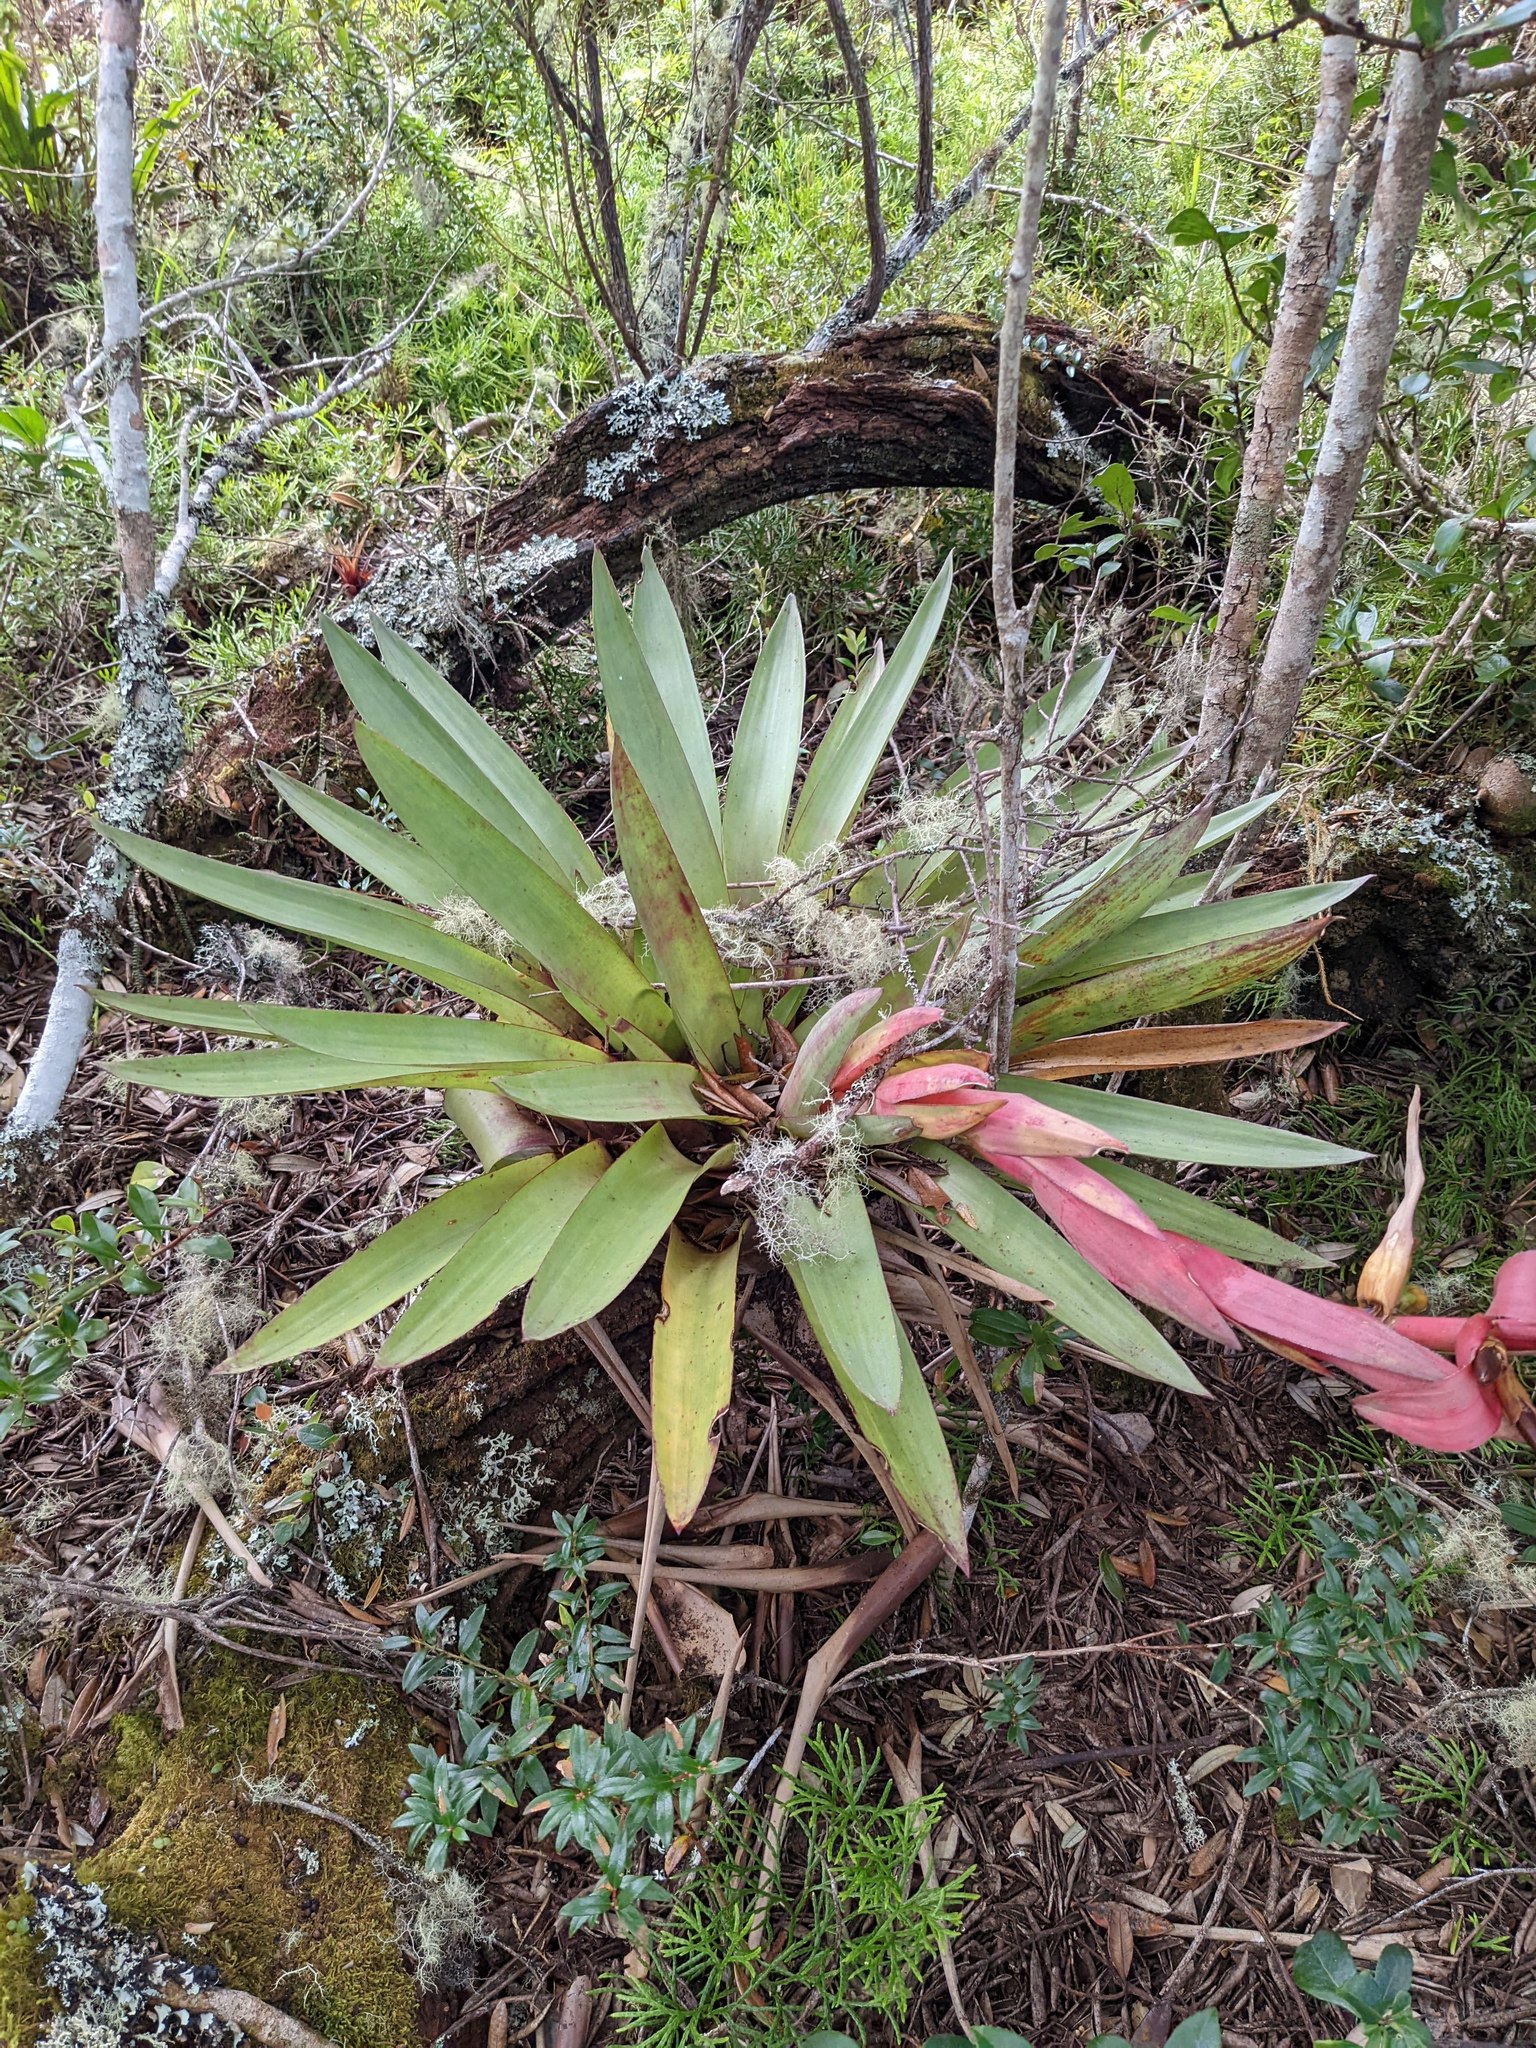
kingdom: Plantae
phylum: Tracheophyta
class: Liliopsida
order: Poales
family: Bromeliaceae
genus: Werauhia
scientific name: Werauhia ororiensis
